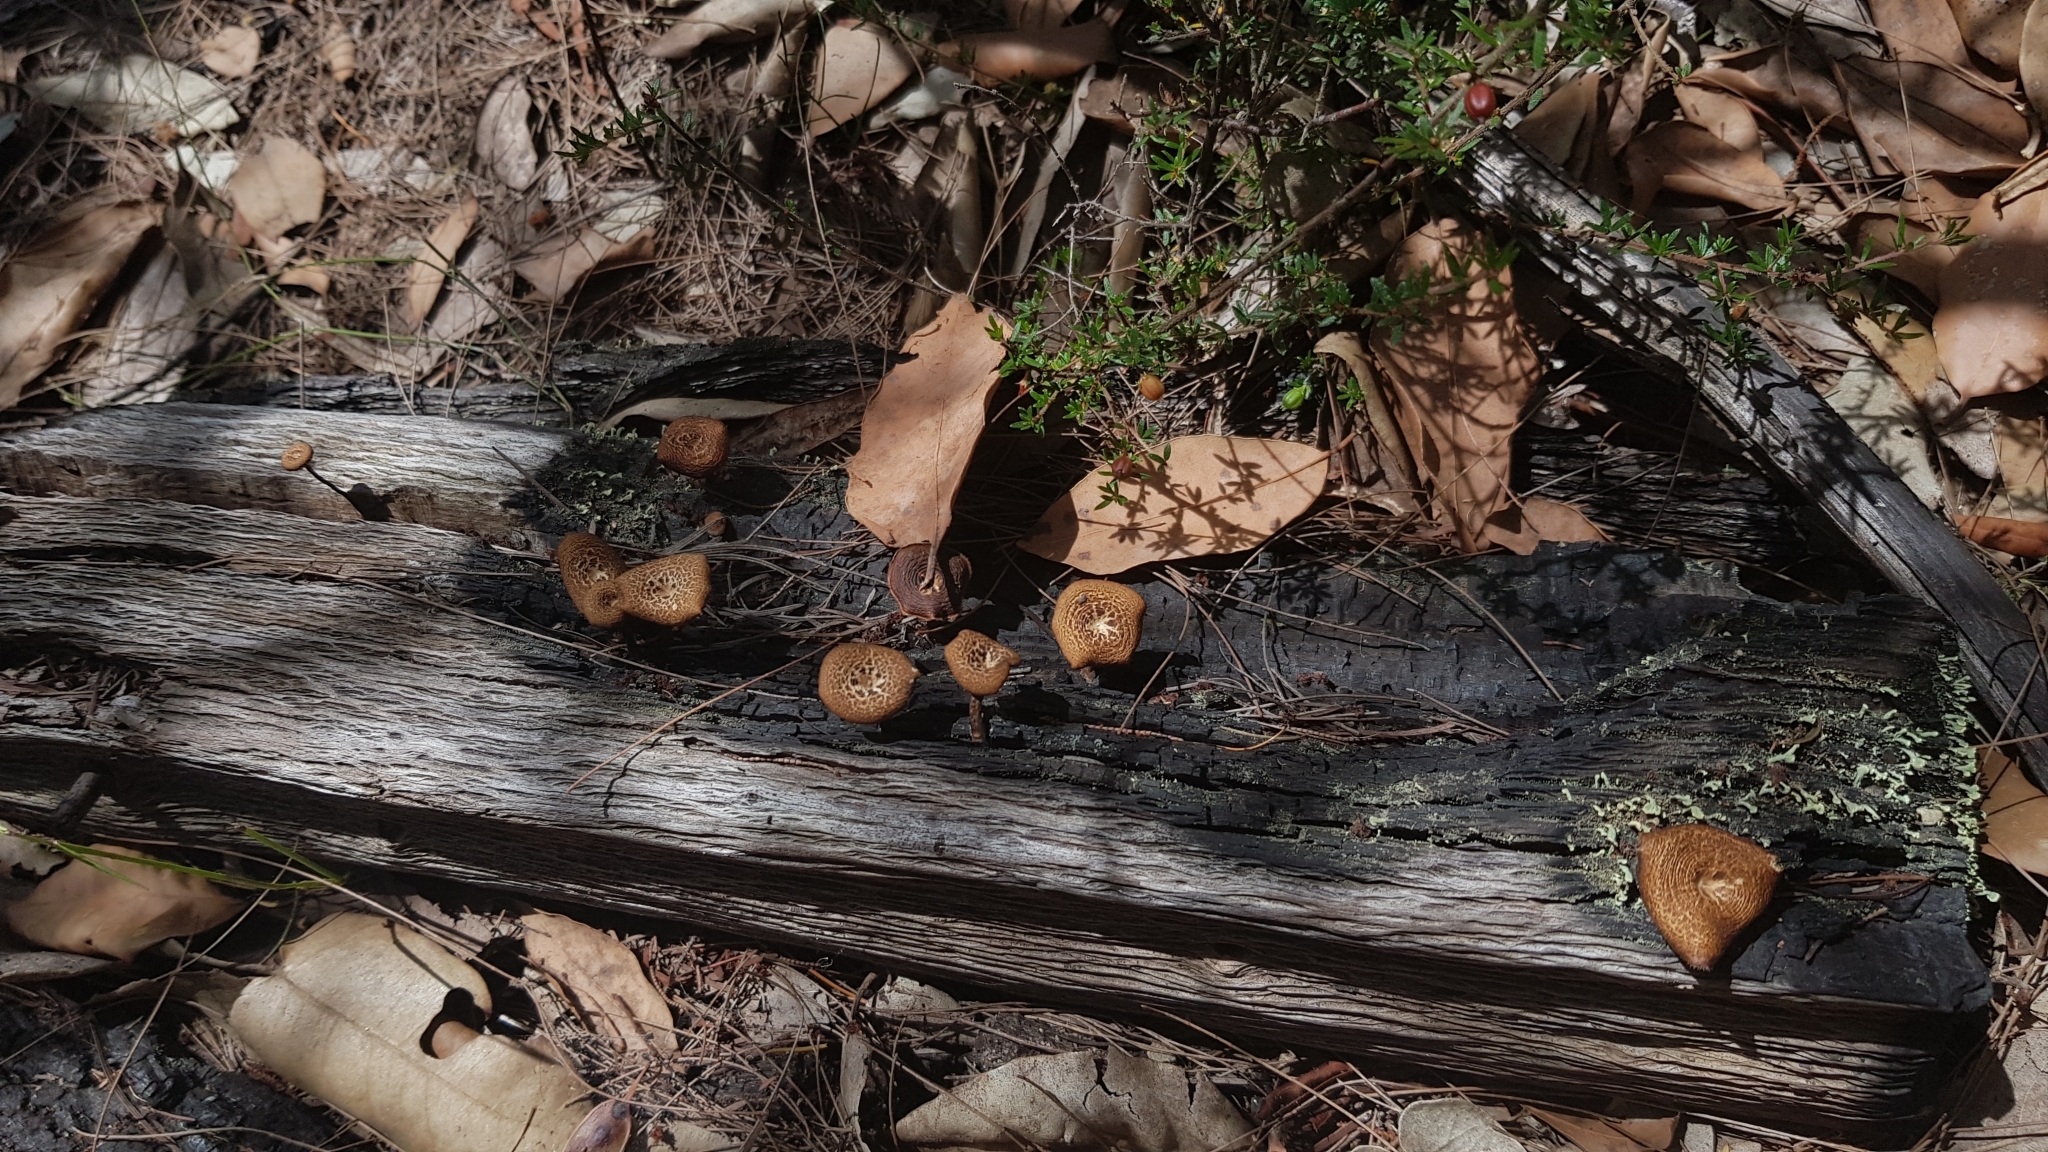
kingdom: Fungi
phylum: Basidiomycota
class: Agaricomycetes
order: Polyporales
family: Polyporaceae
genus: Lentinus
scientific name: Lentinus arcularius
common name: Spring polypore
